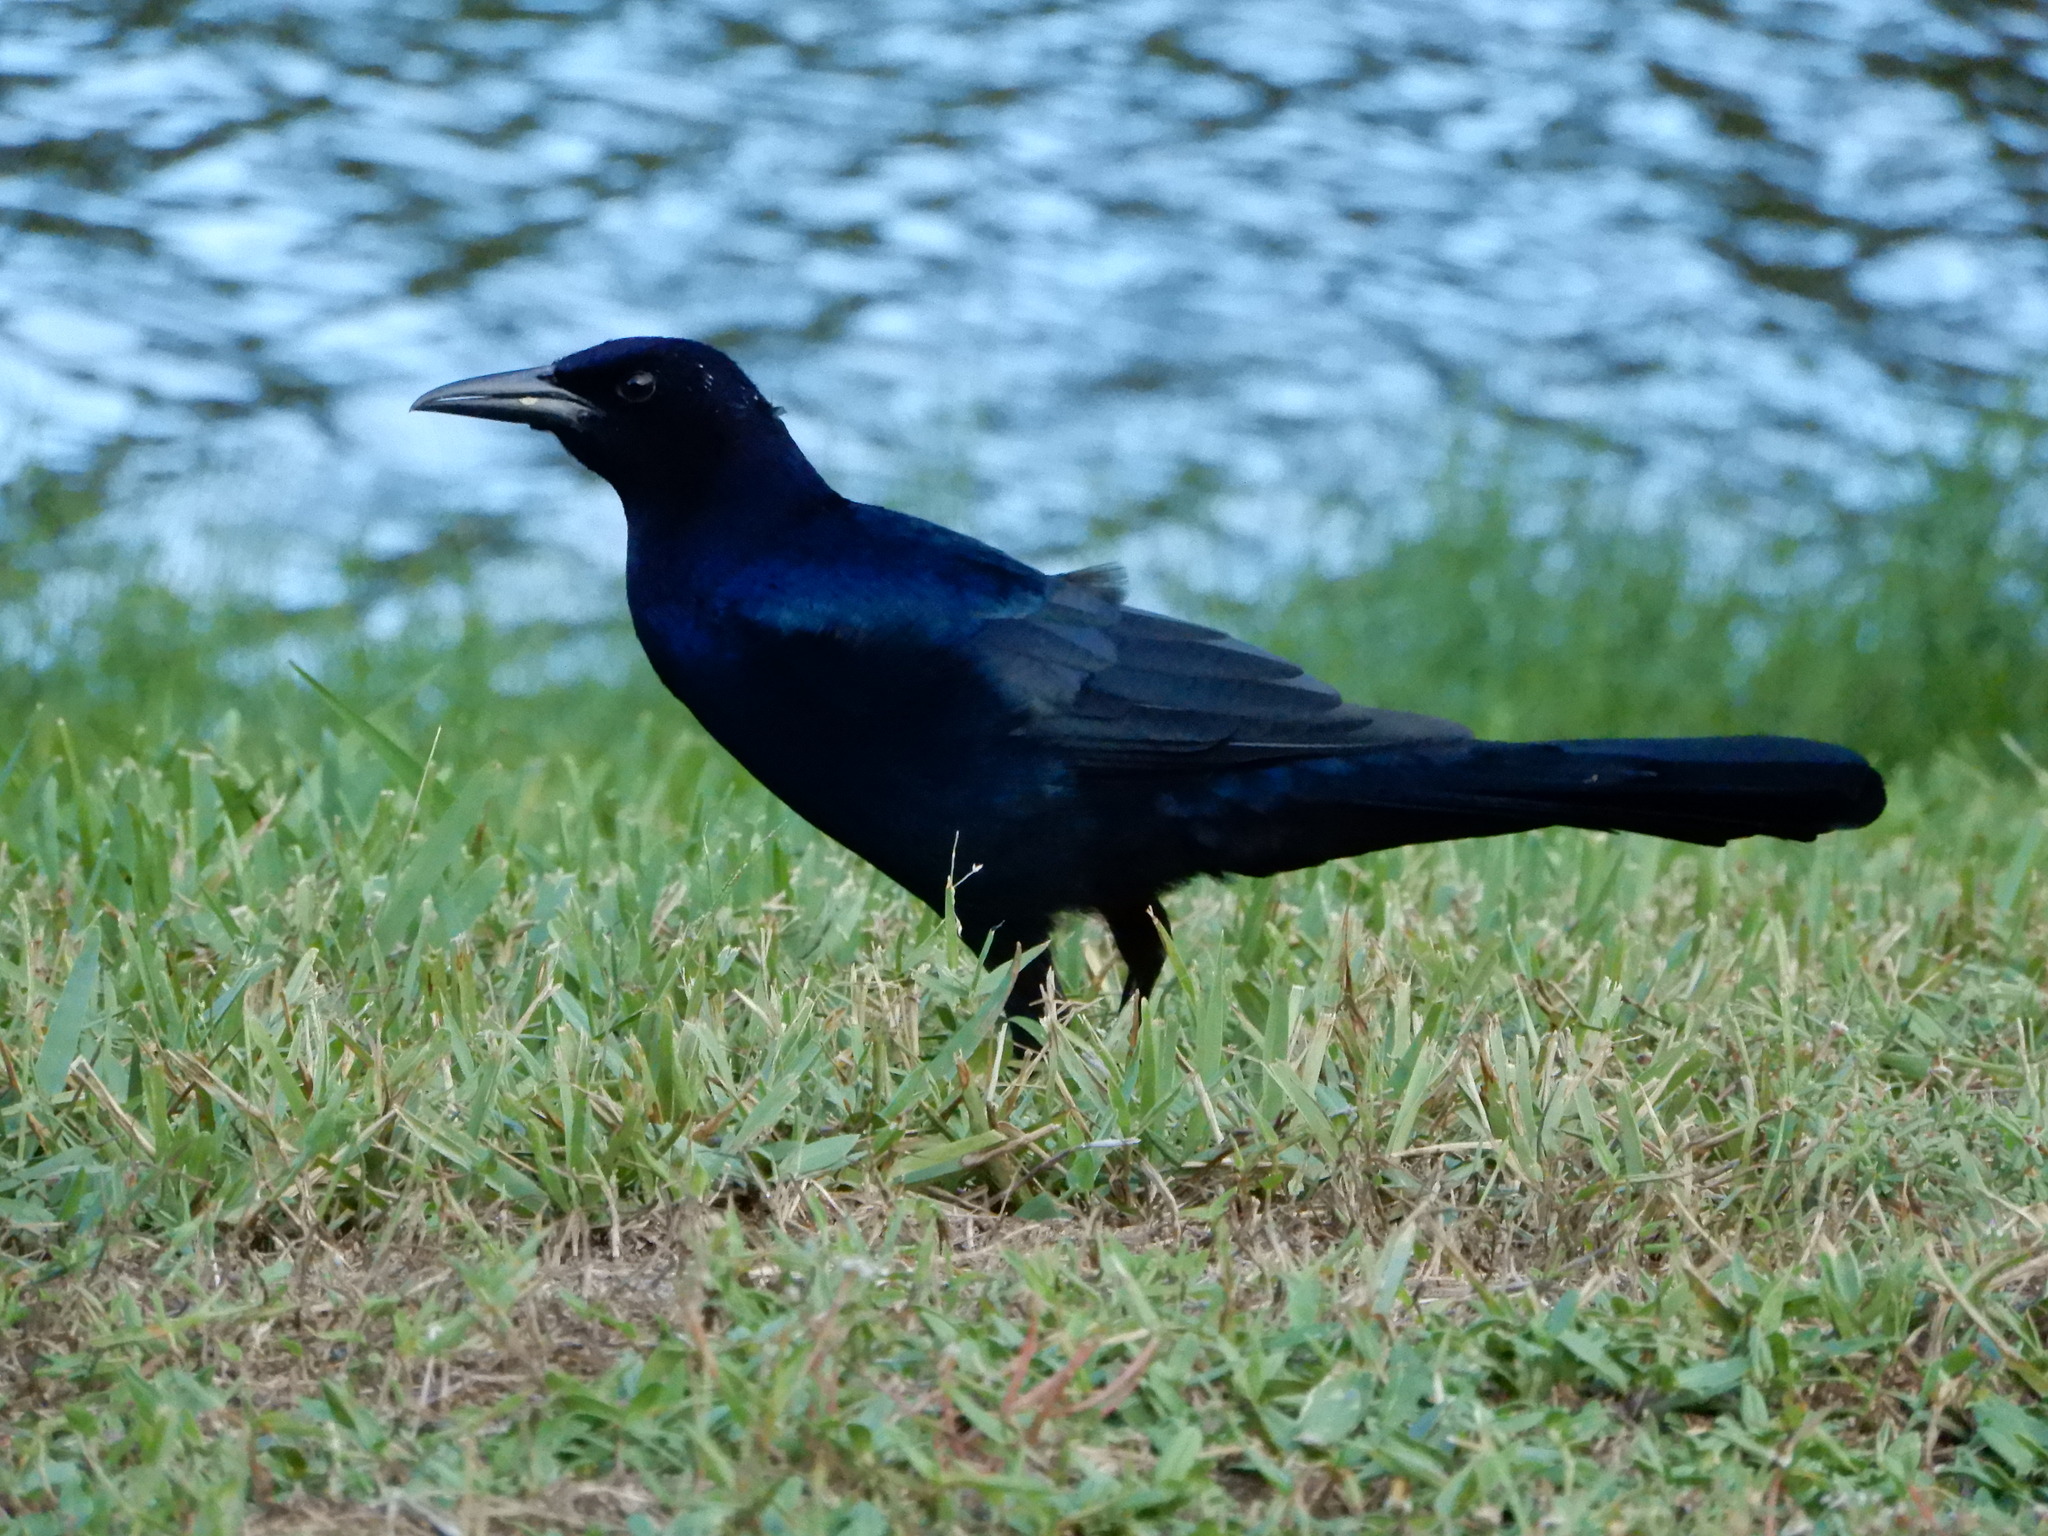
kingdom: Animalia
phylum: Chordata
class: Aves
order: Passeriformes
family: Icteridae
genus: Quiscalus
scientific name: Quiscalus major
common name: Boat-tailed grackle
